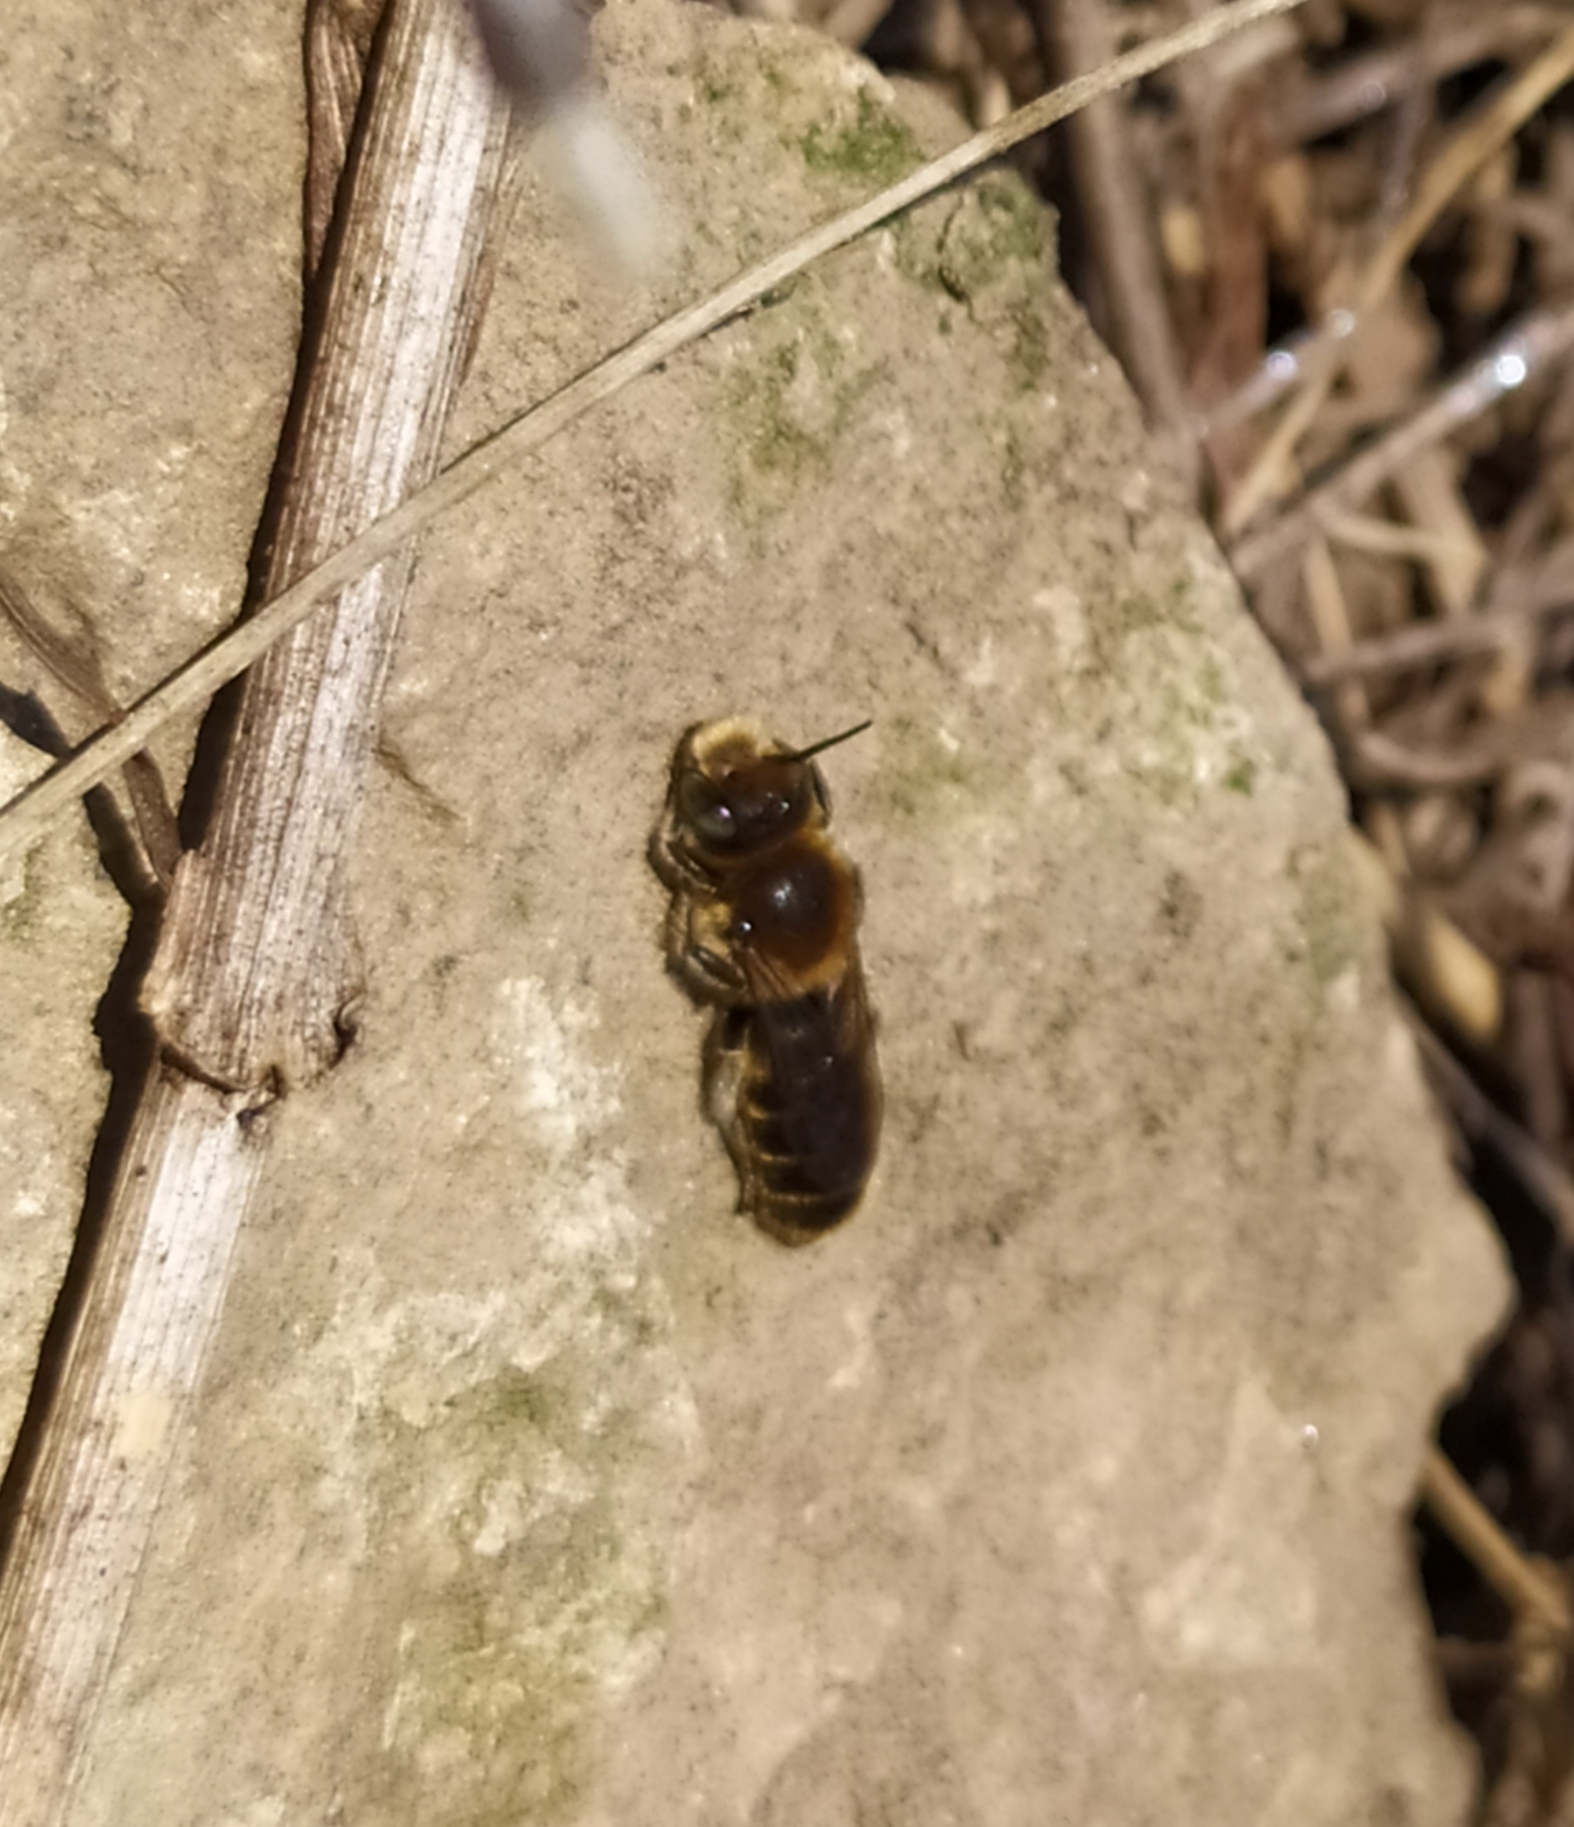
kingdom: Animalia
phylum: Arthropoda
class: Insecta
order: Hymenoptera
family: Megachilidae
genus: Hoplitis
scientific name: Hoplitis adunca
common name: Viper's bugloss mason bee
